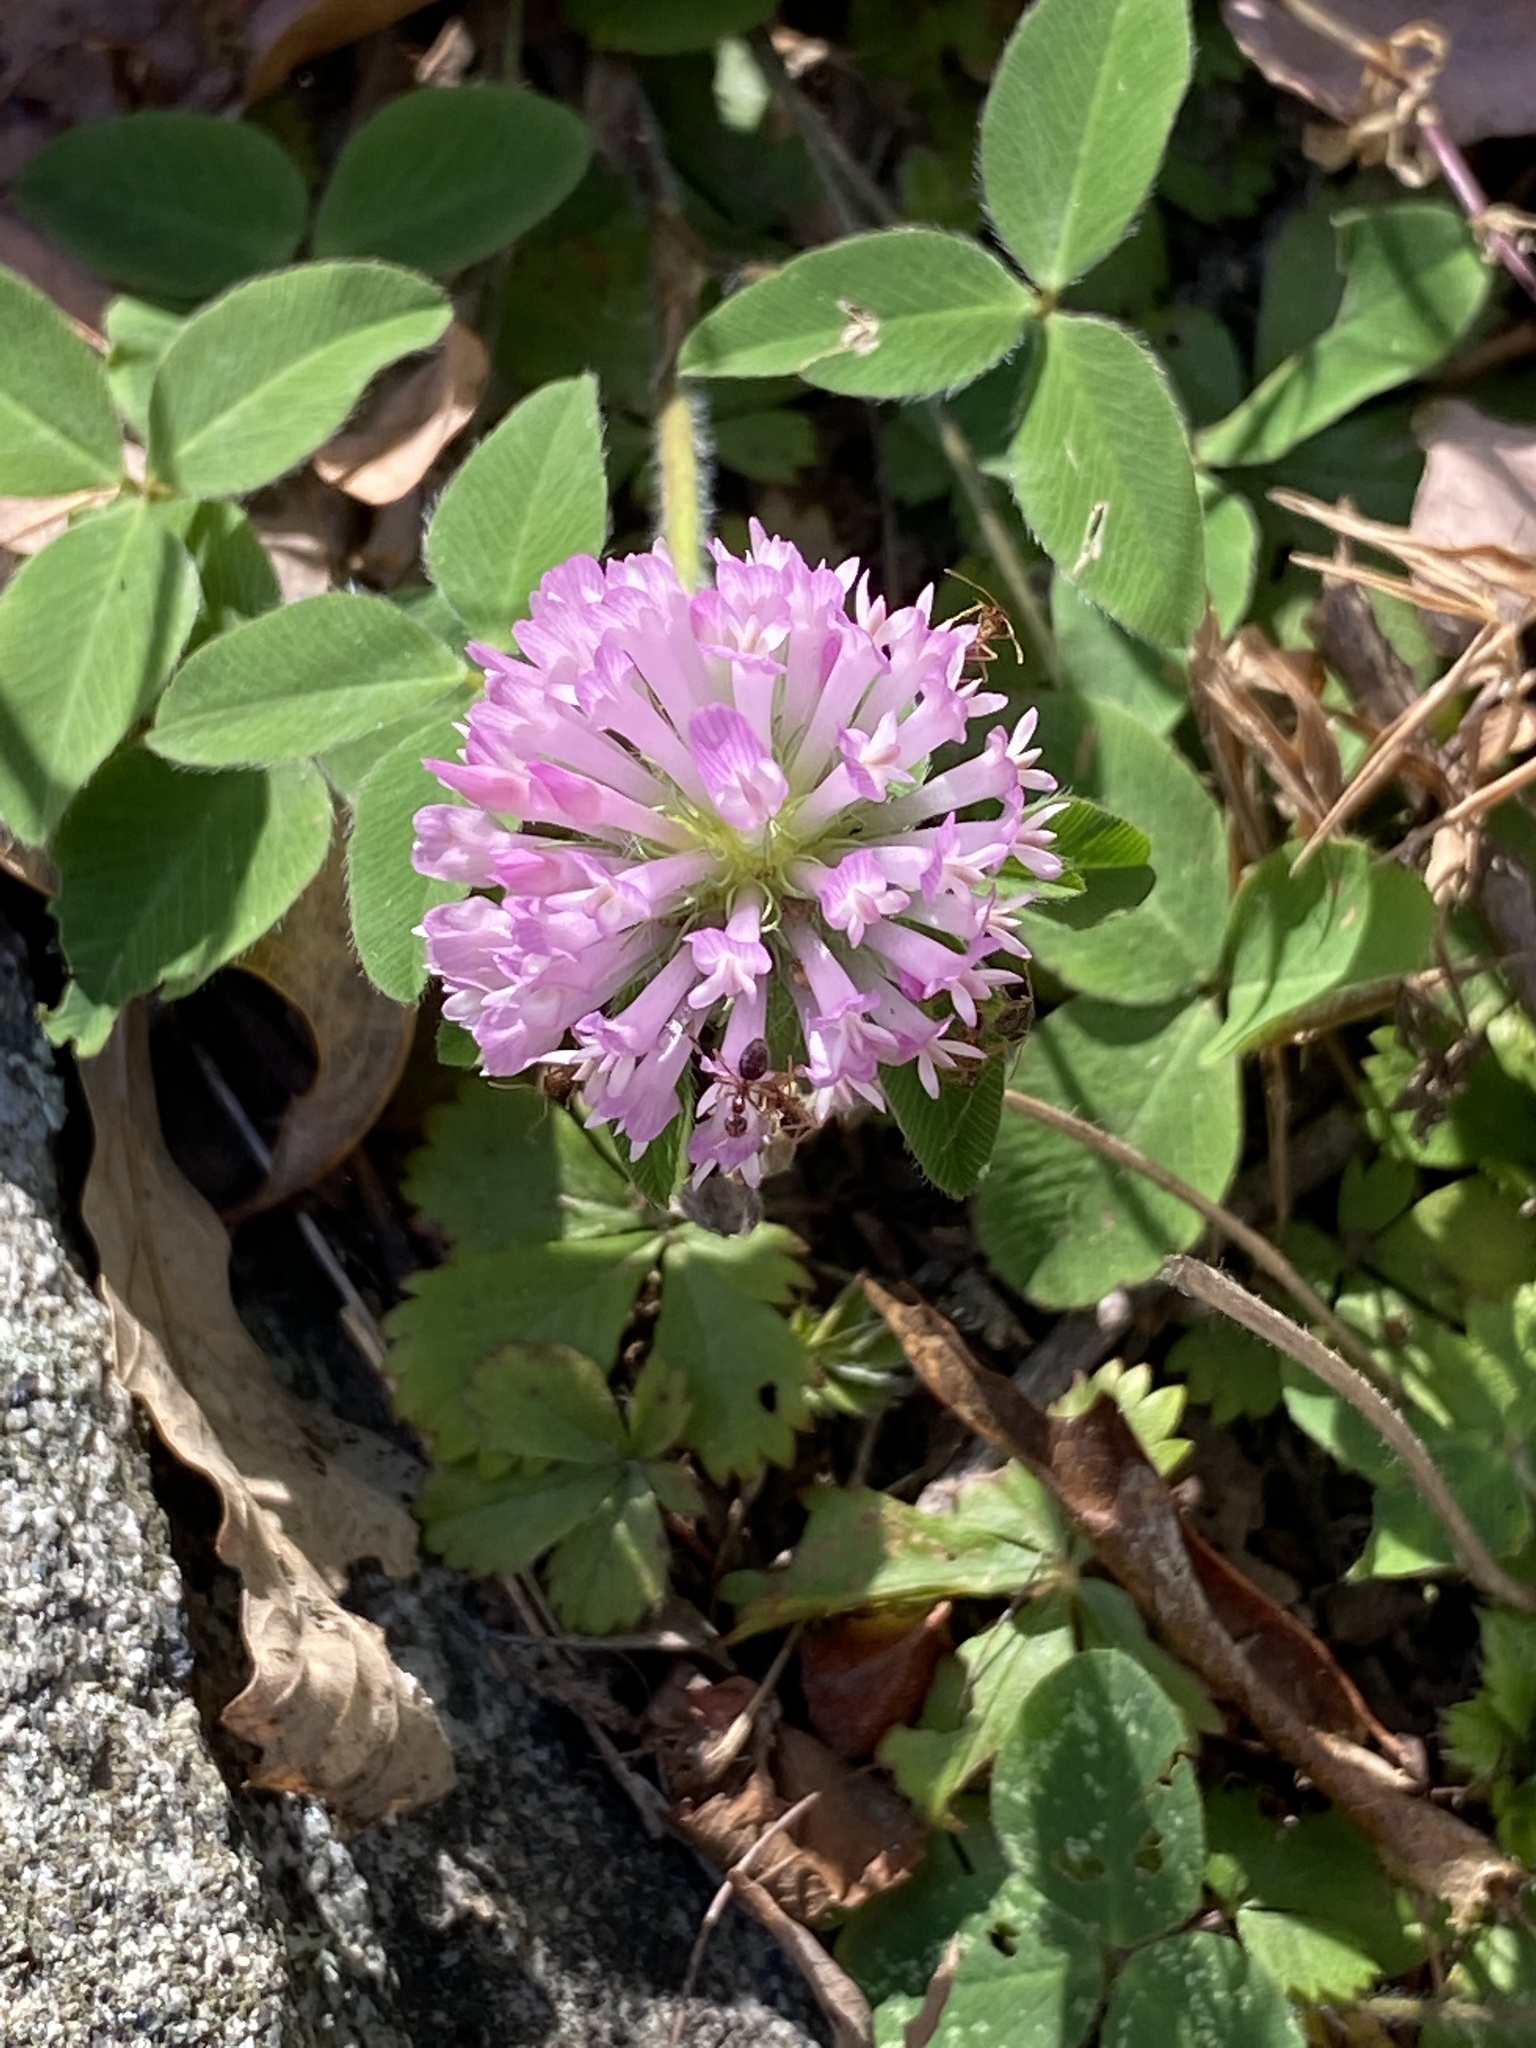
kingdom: Plantae
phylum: Tracheophyta
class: Magnoliopsida
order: Fabales
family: Fabaceae
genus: Trifolium
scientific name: Trifolium pratense
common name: Red clover
